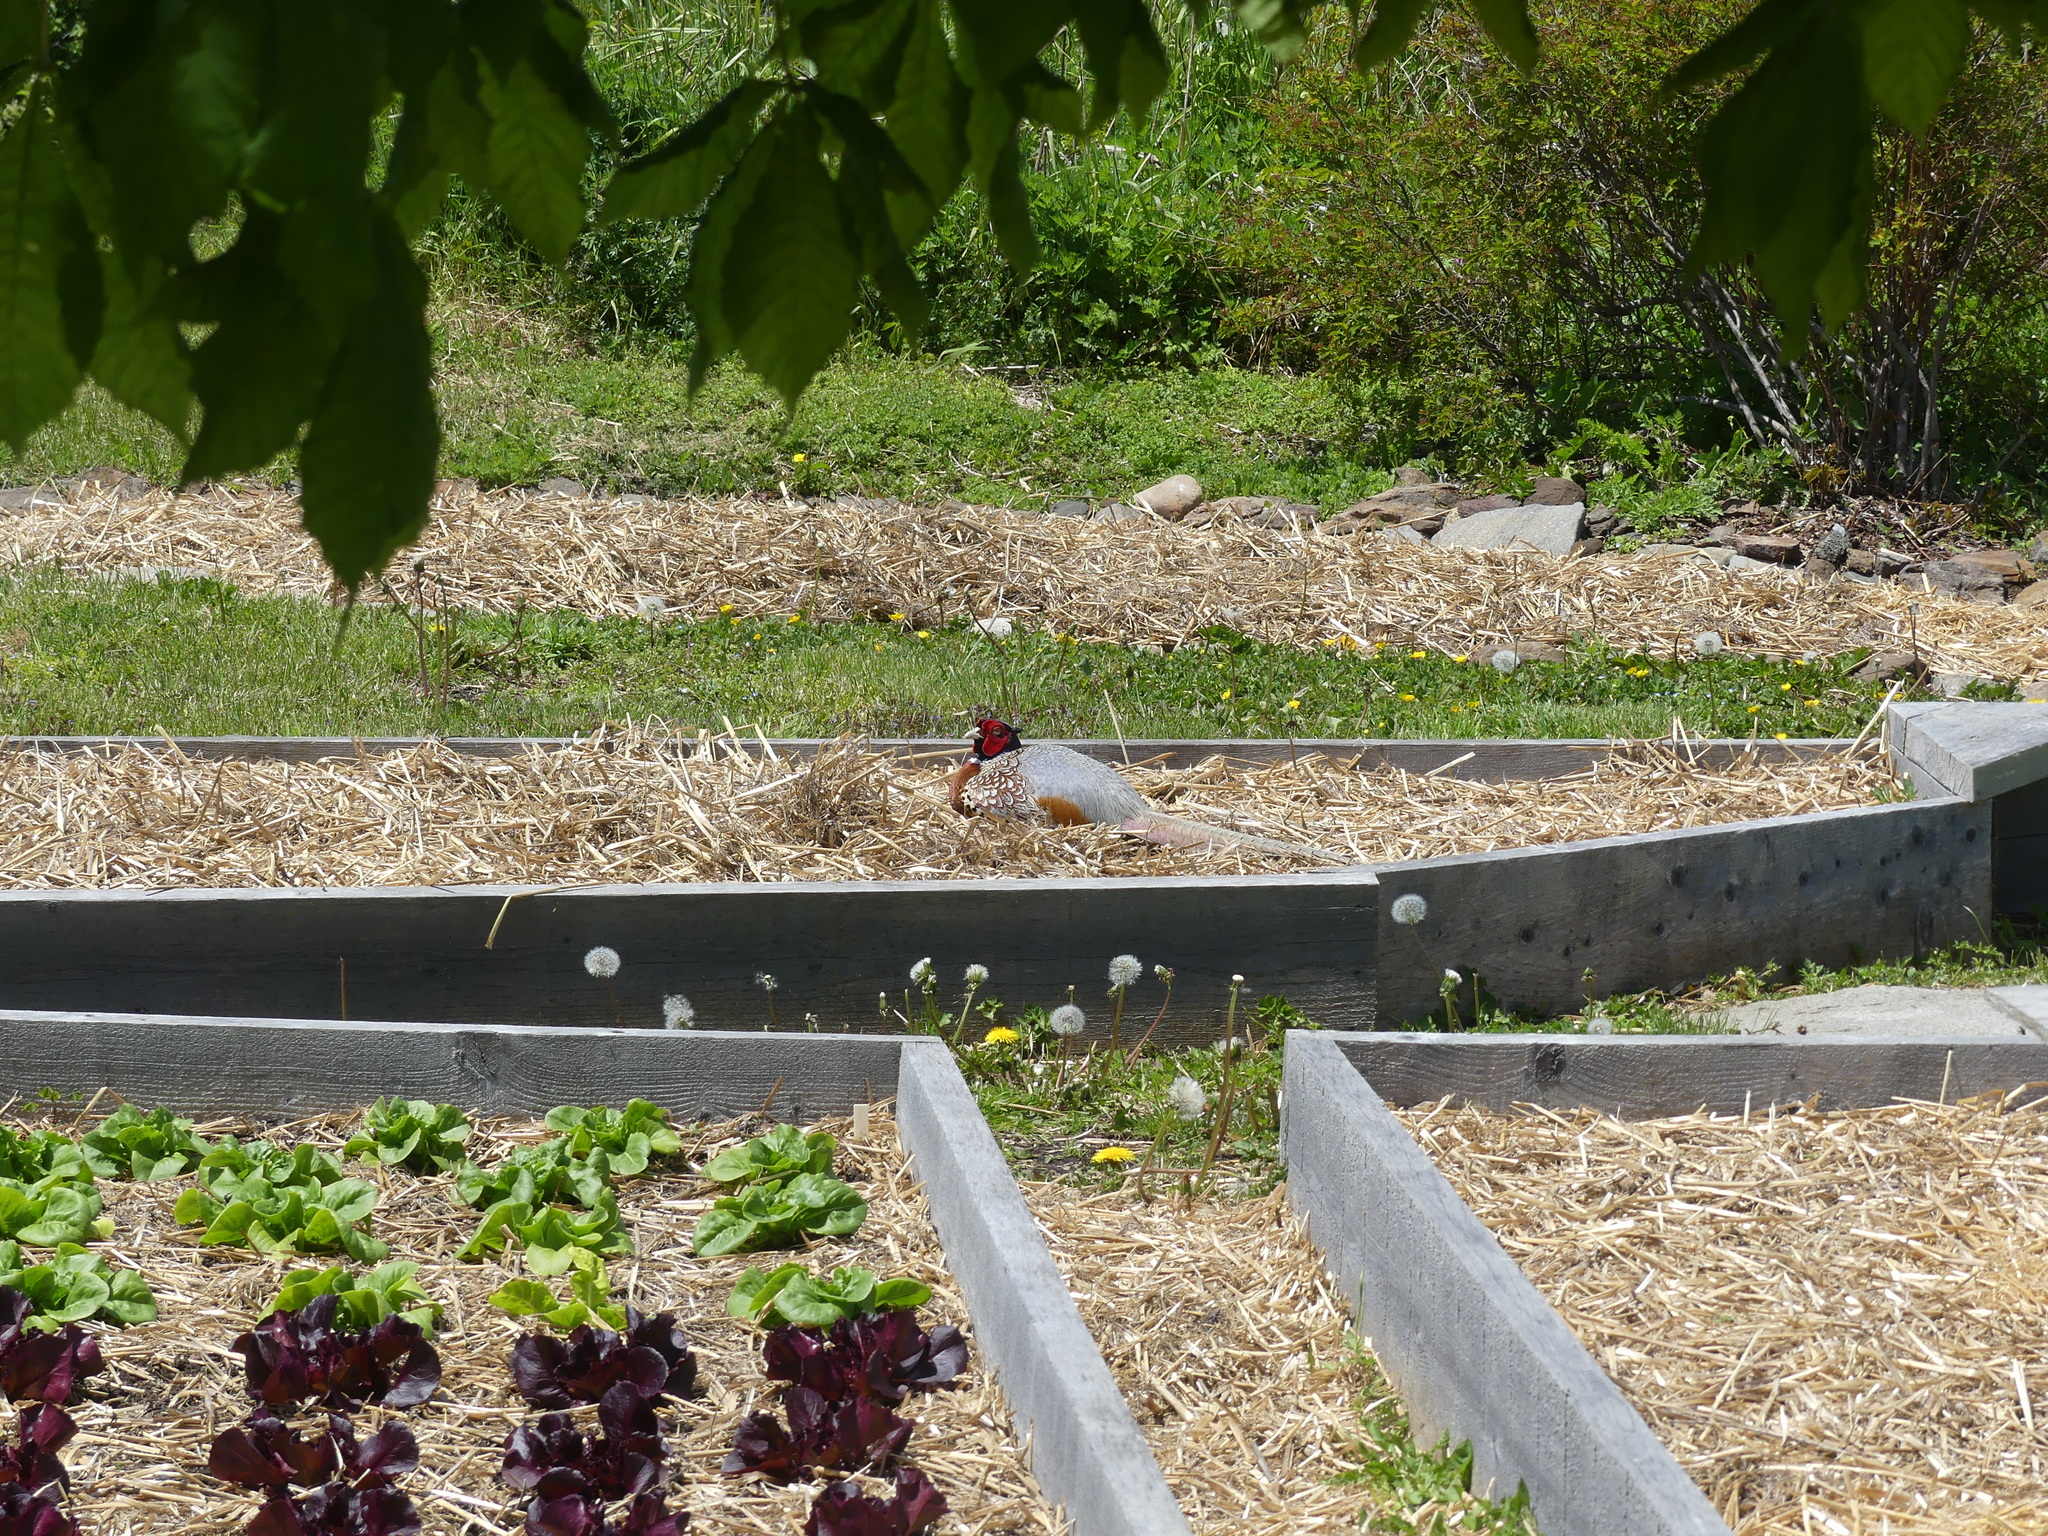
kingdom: Animalia
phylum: Chordata
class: Aves
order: Galliformes
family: Phasianidae
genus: Phasianus
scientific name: Phasianus colchicus
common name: Common pheasant
